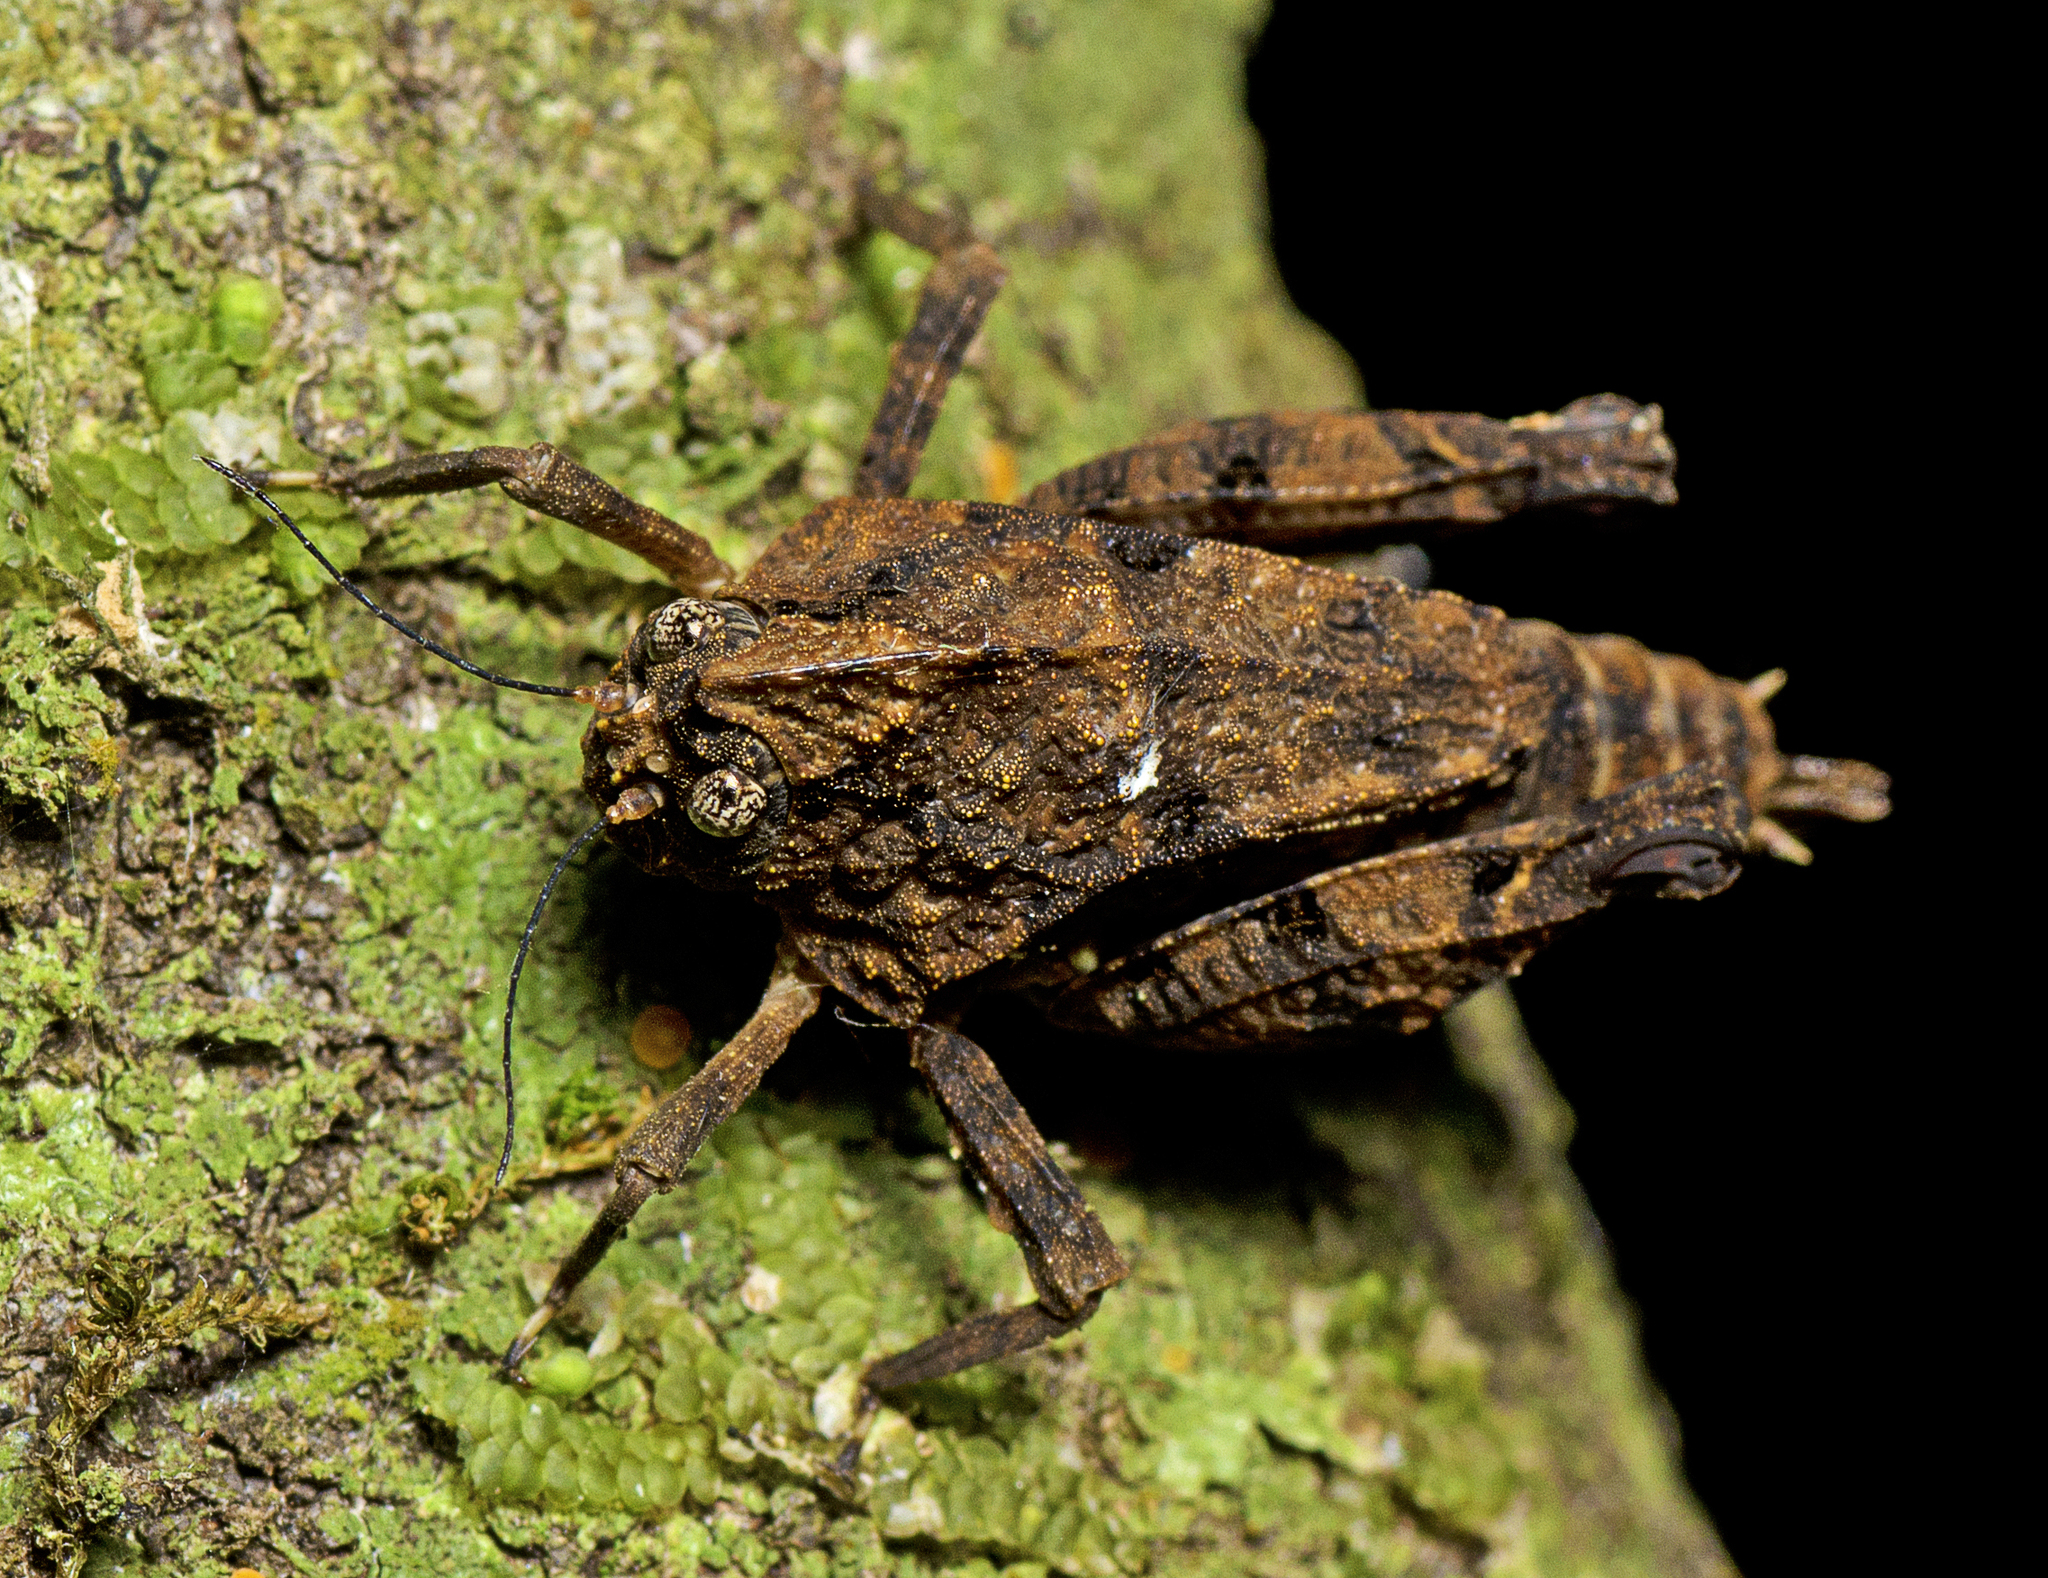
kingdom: Animalia
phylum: Arthropoda
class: Insecta
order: Orthoptera
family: Tetrigidae
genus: Vingselina
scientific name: Vingselina crassa
